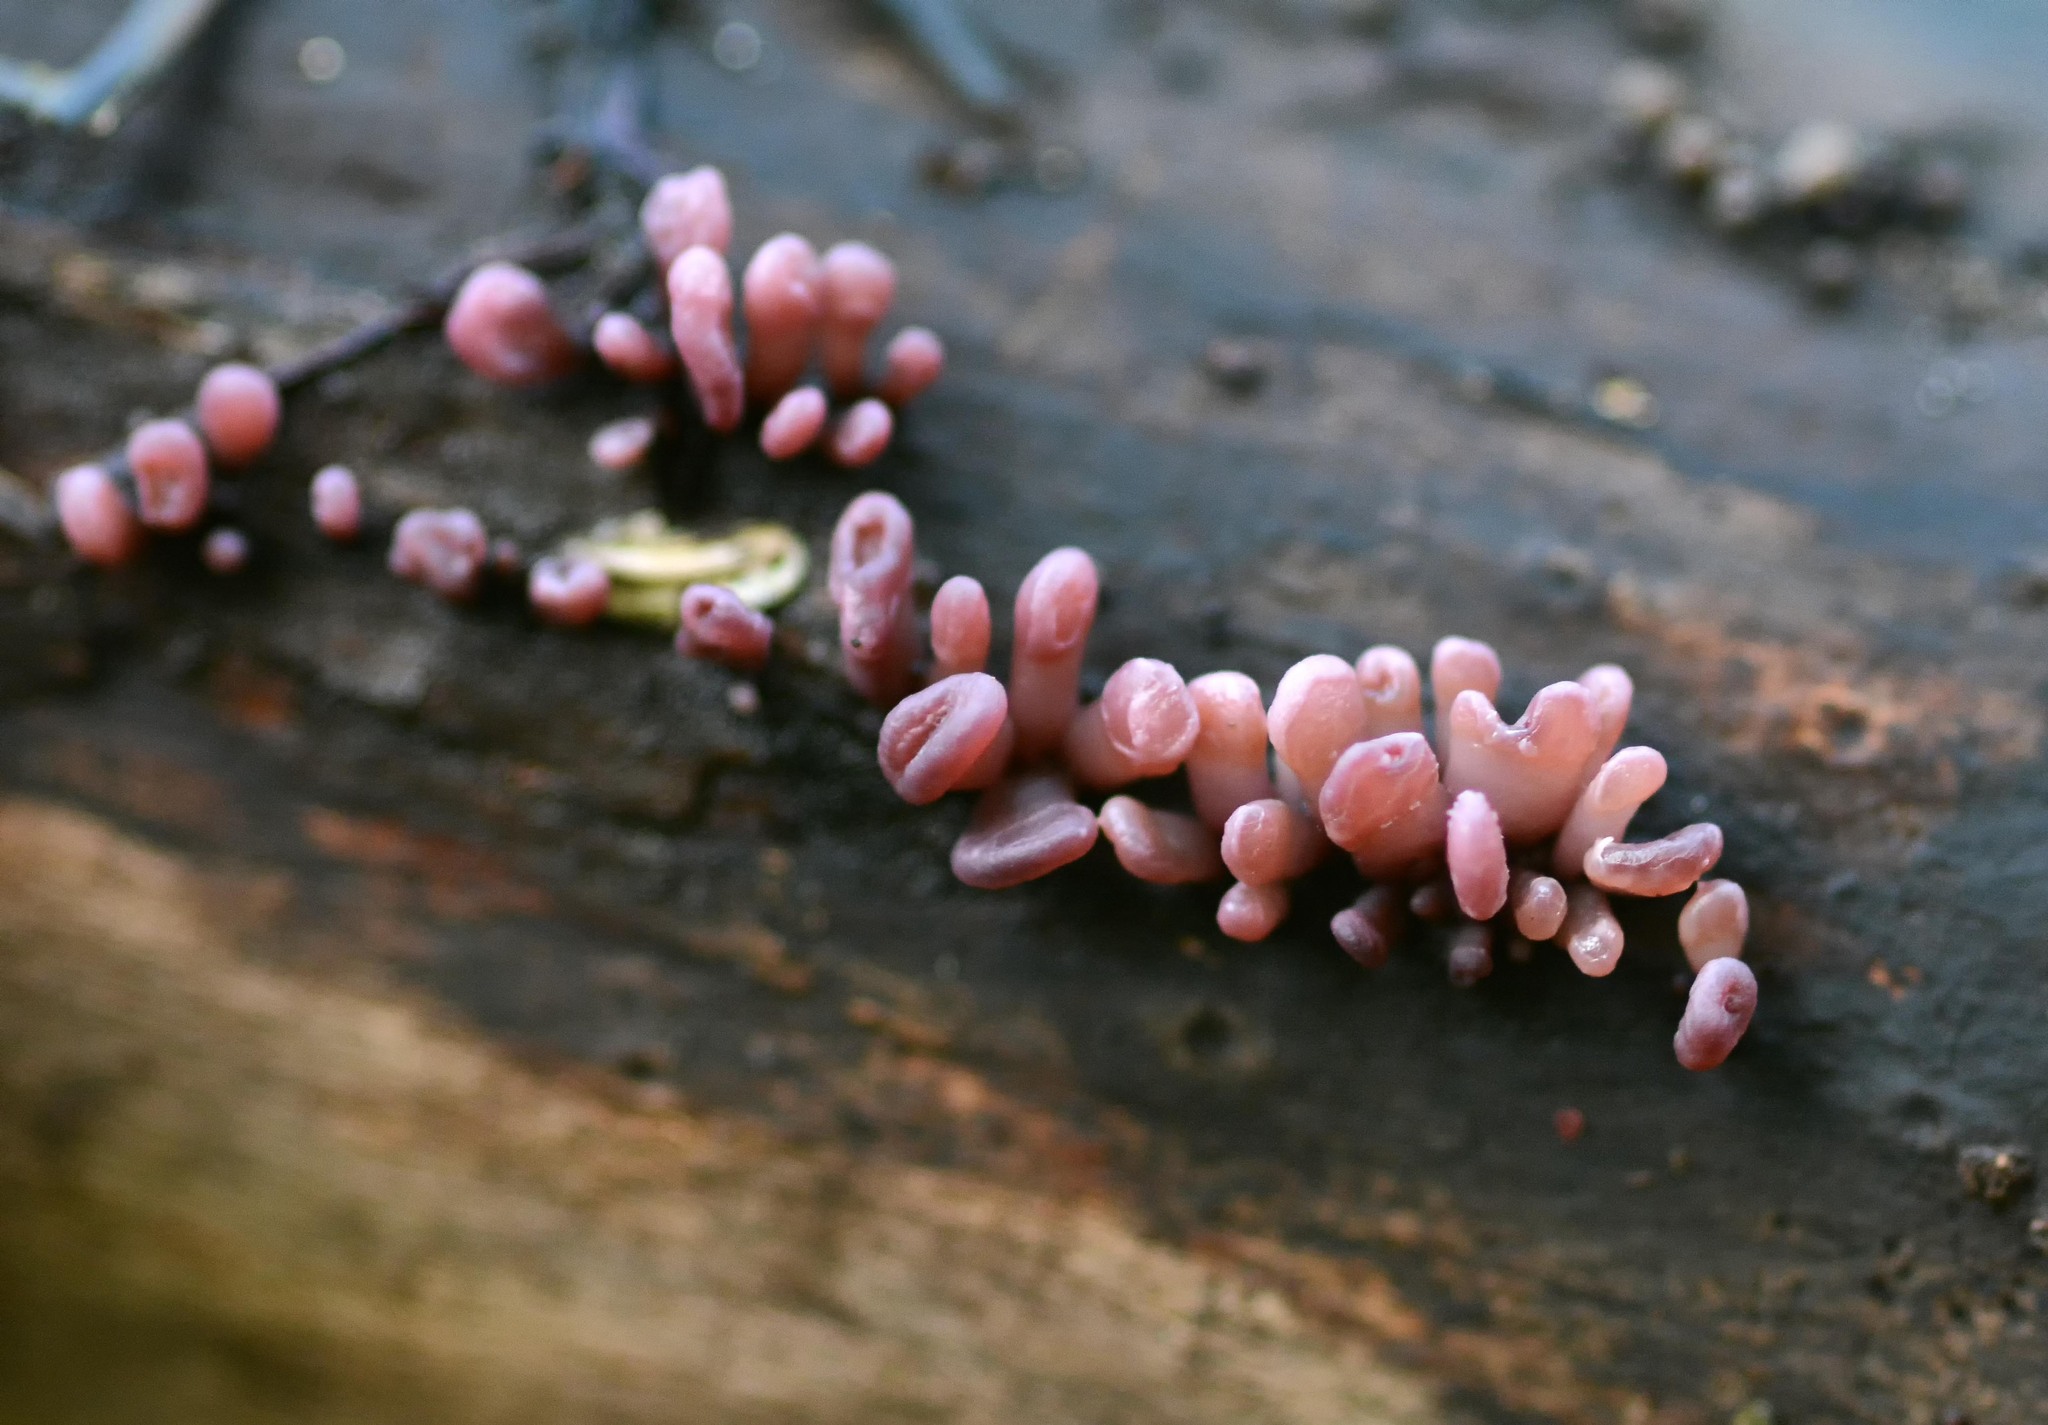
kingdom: Fungi
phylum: Ascomycota
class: Leotiomycetes
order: Helotiales
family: Gelatinodiscaceae
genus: Ascocoryne
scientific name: Ascocoryne sarcoides
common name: Purple jellydisc
